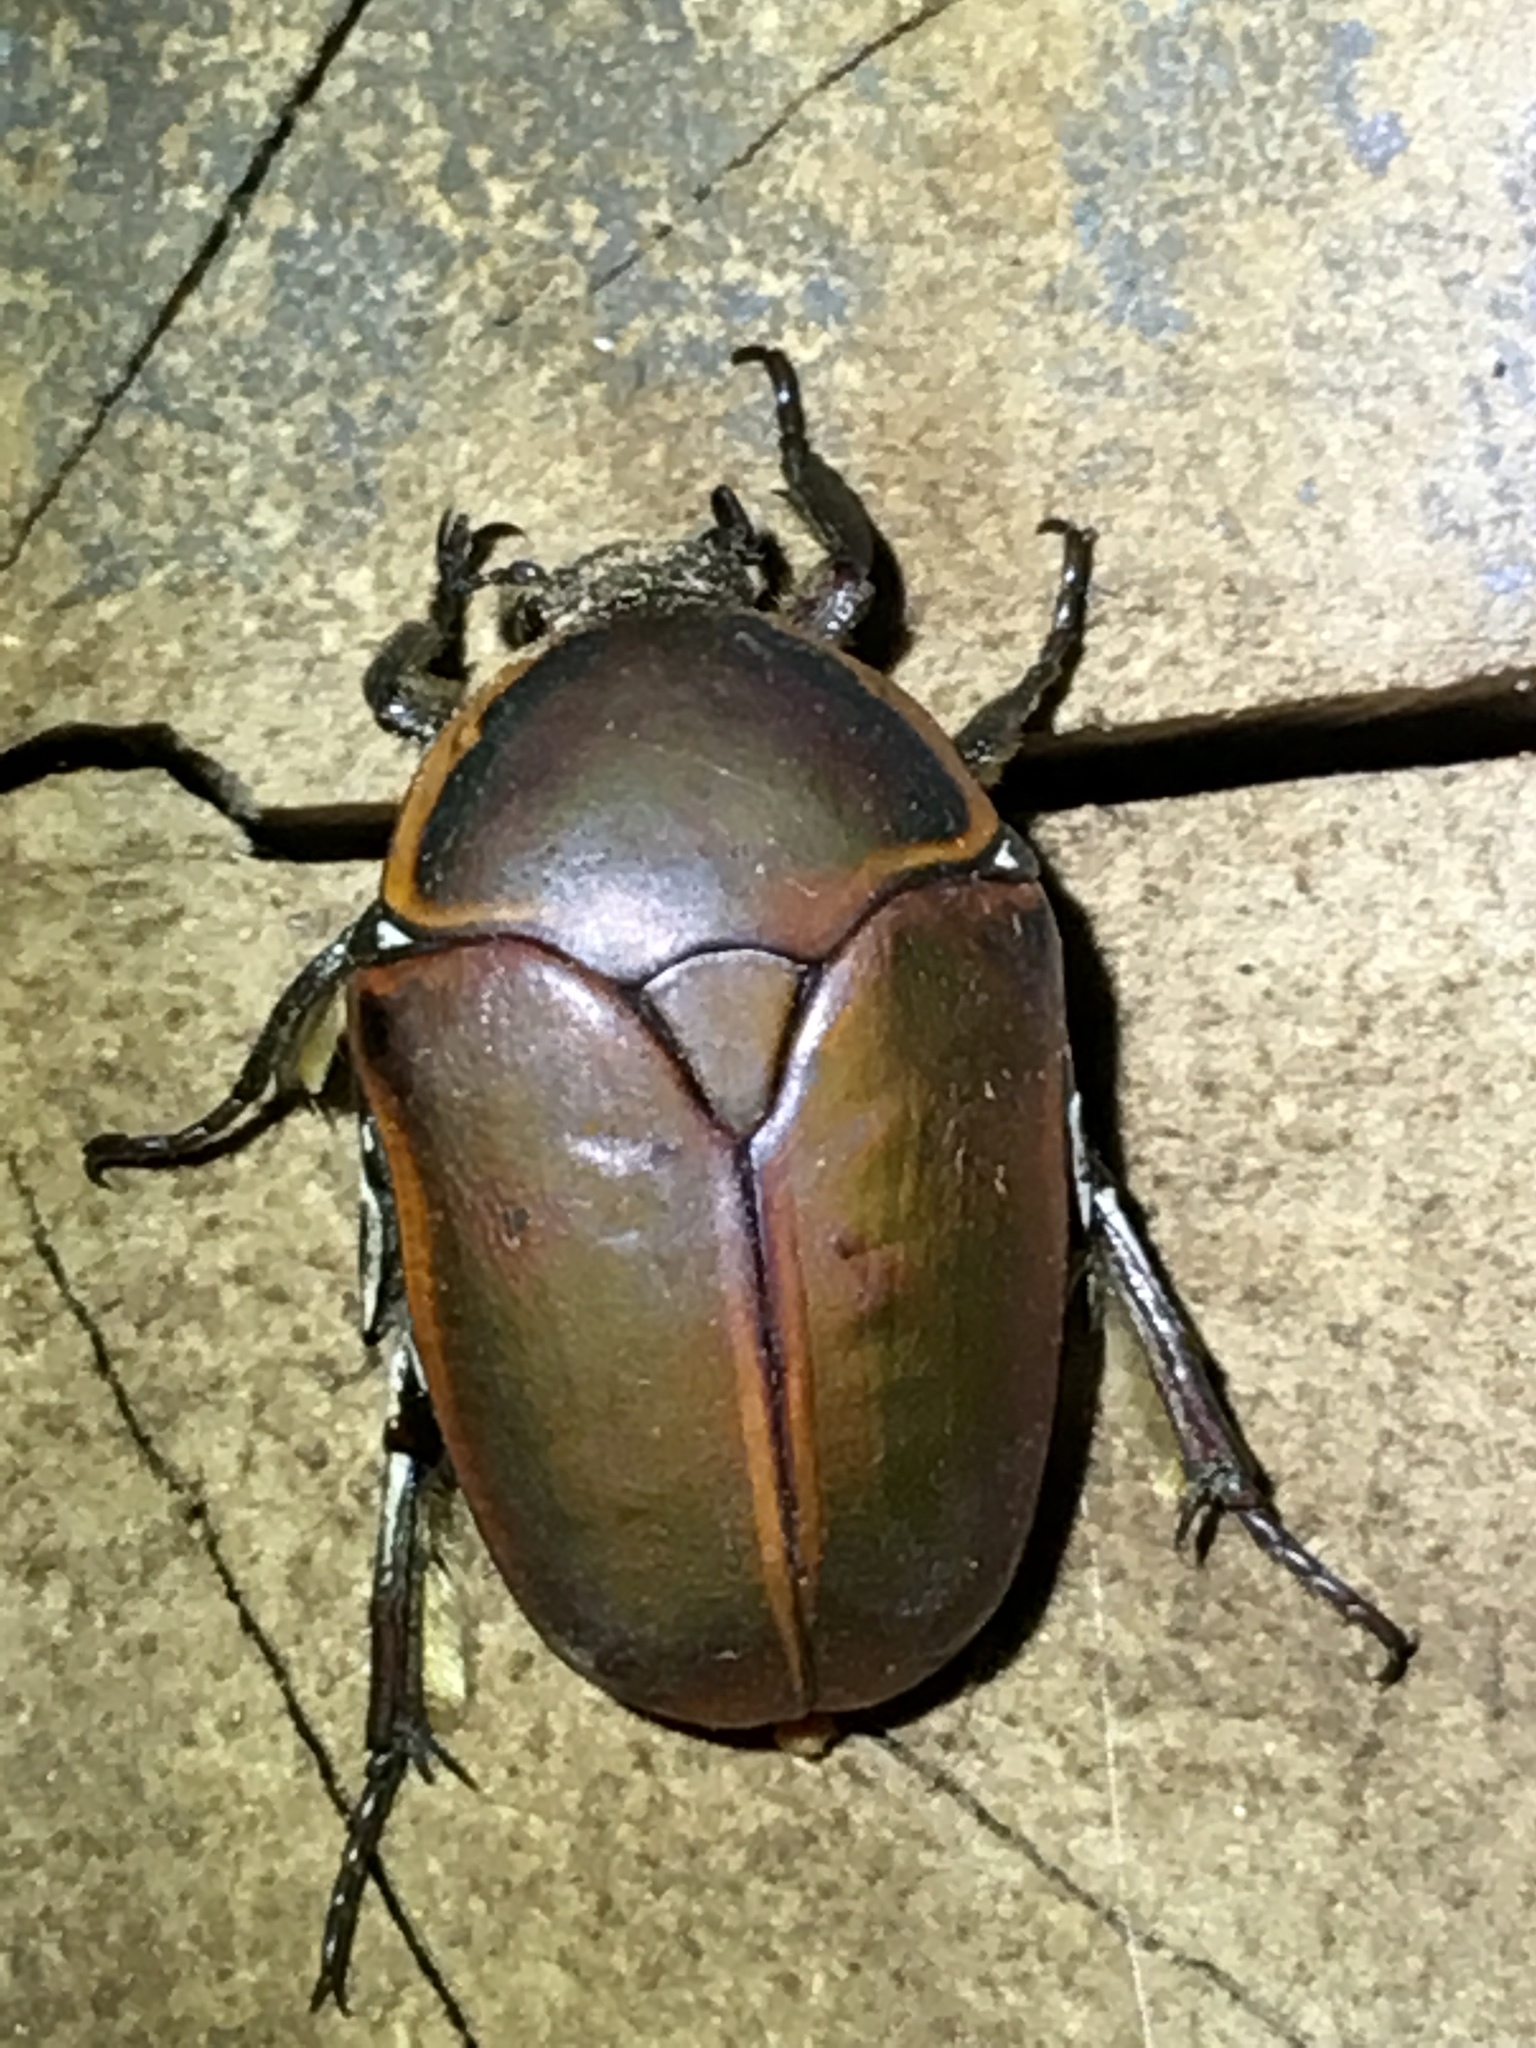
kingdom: Animalia
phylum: Arthropoda
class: Insecta
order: Coleoptera
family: Scarabaeidae
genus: Dischista
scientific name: Dischista
